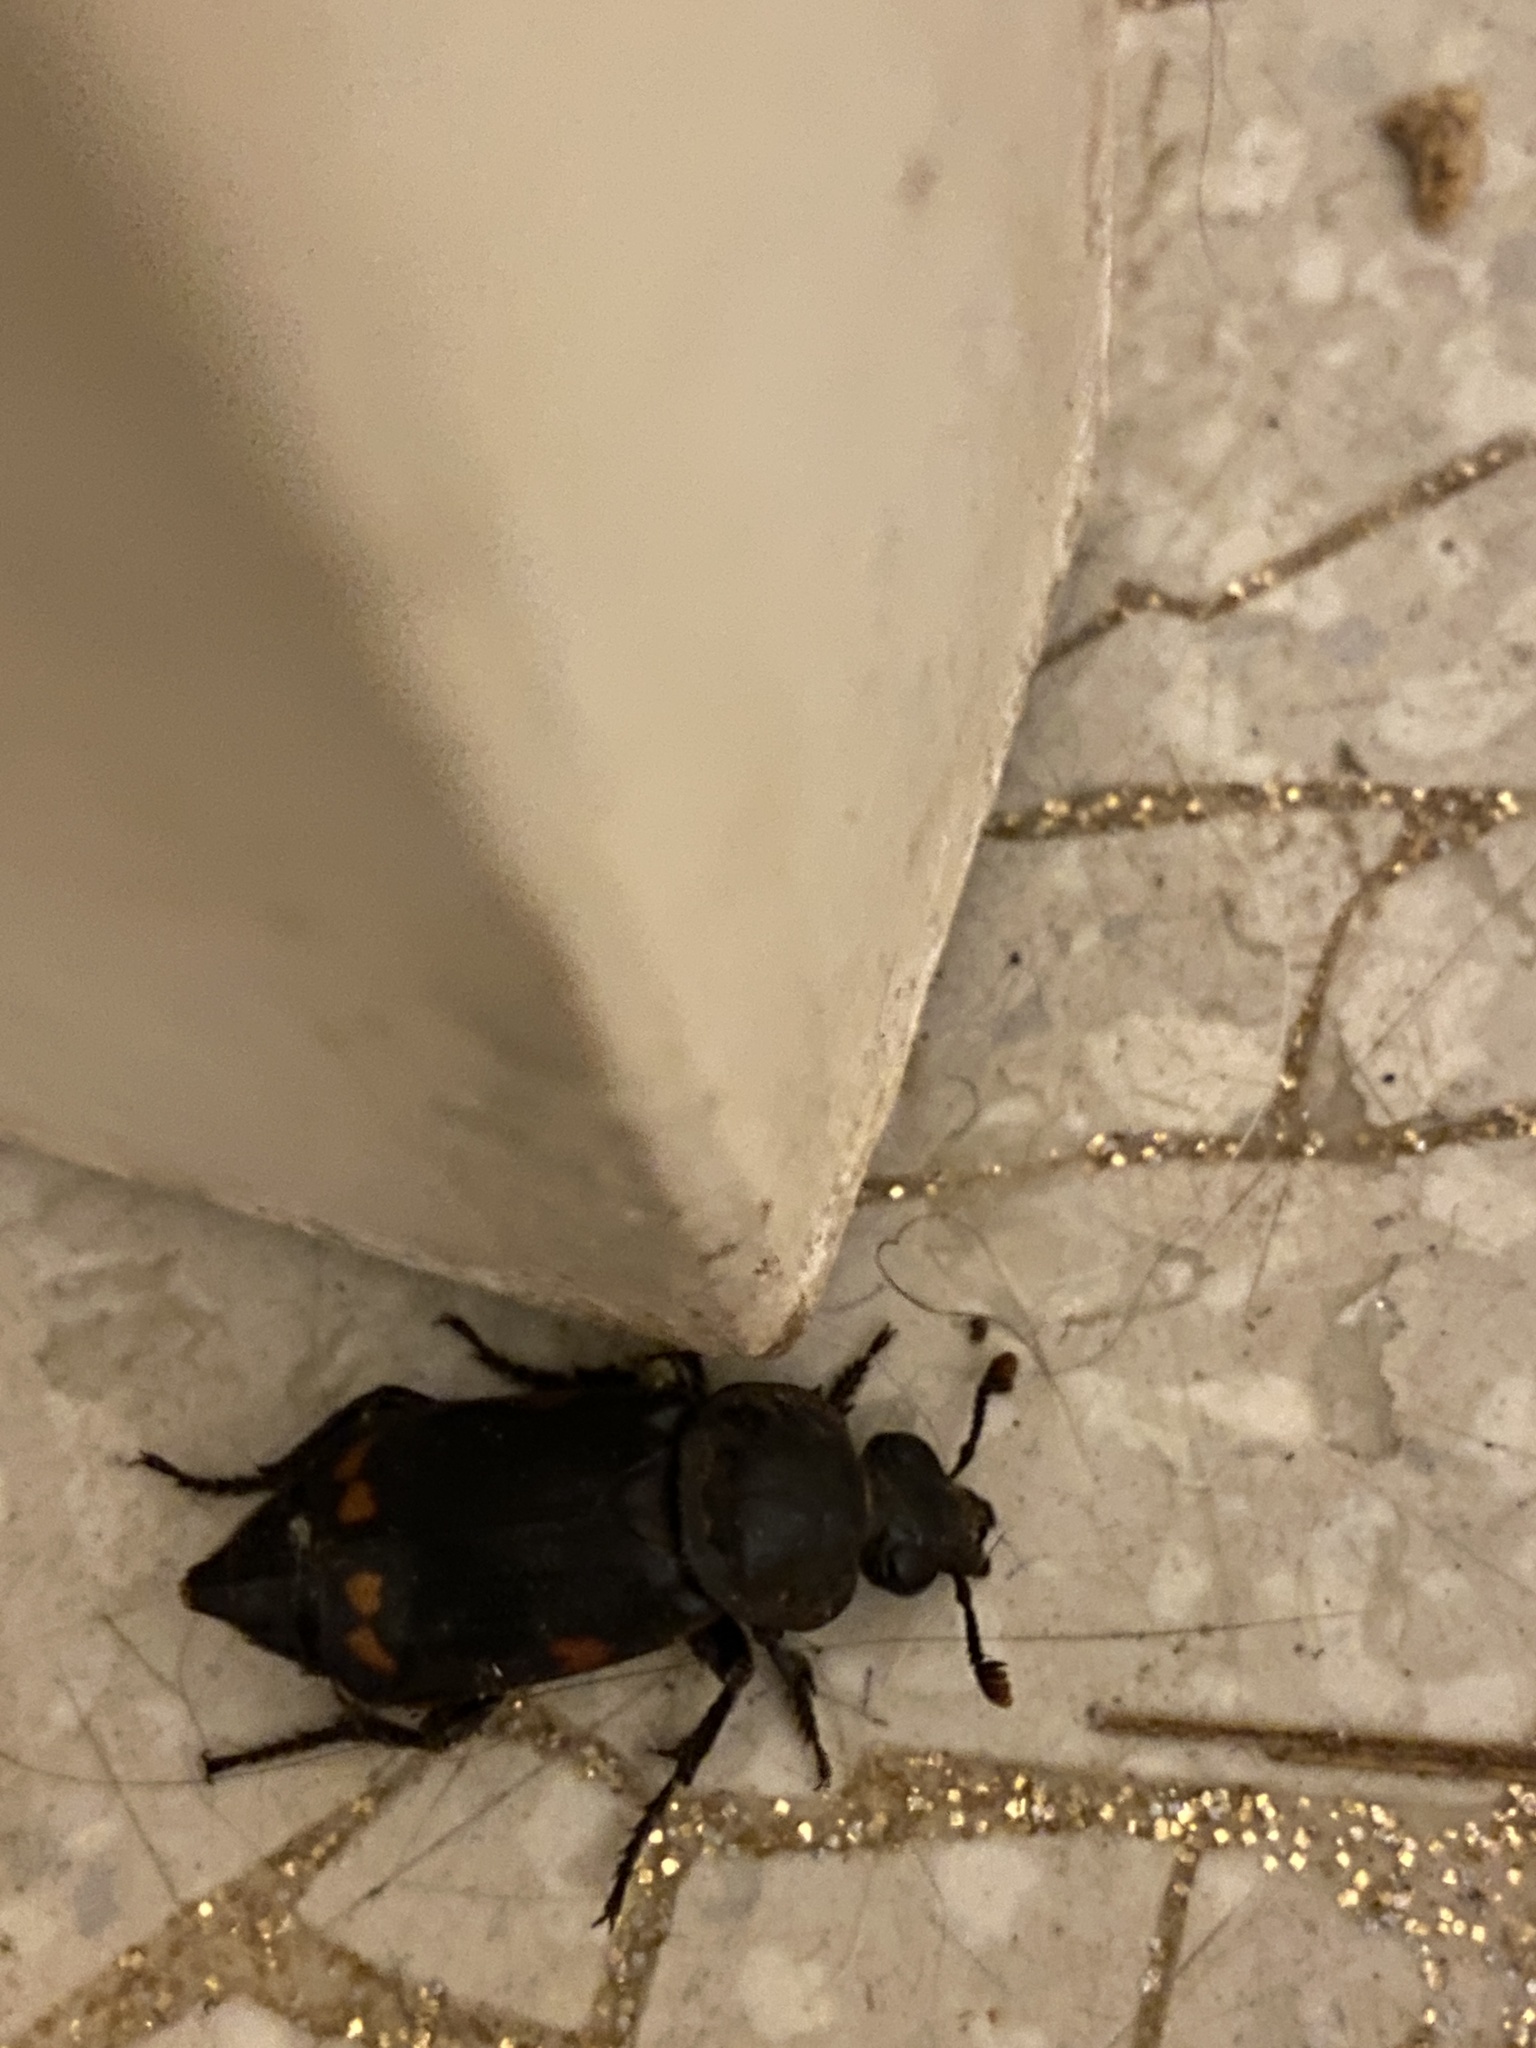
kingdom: Animalia
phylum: Arthropoda
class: Insecta
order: Coleoptera
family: Staphylinidae
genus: Nicrophorus
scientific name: Nicrophorus pustulatus
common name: Pustulated carrion beetle
